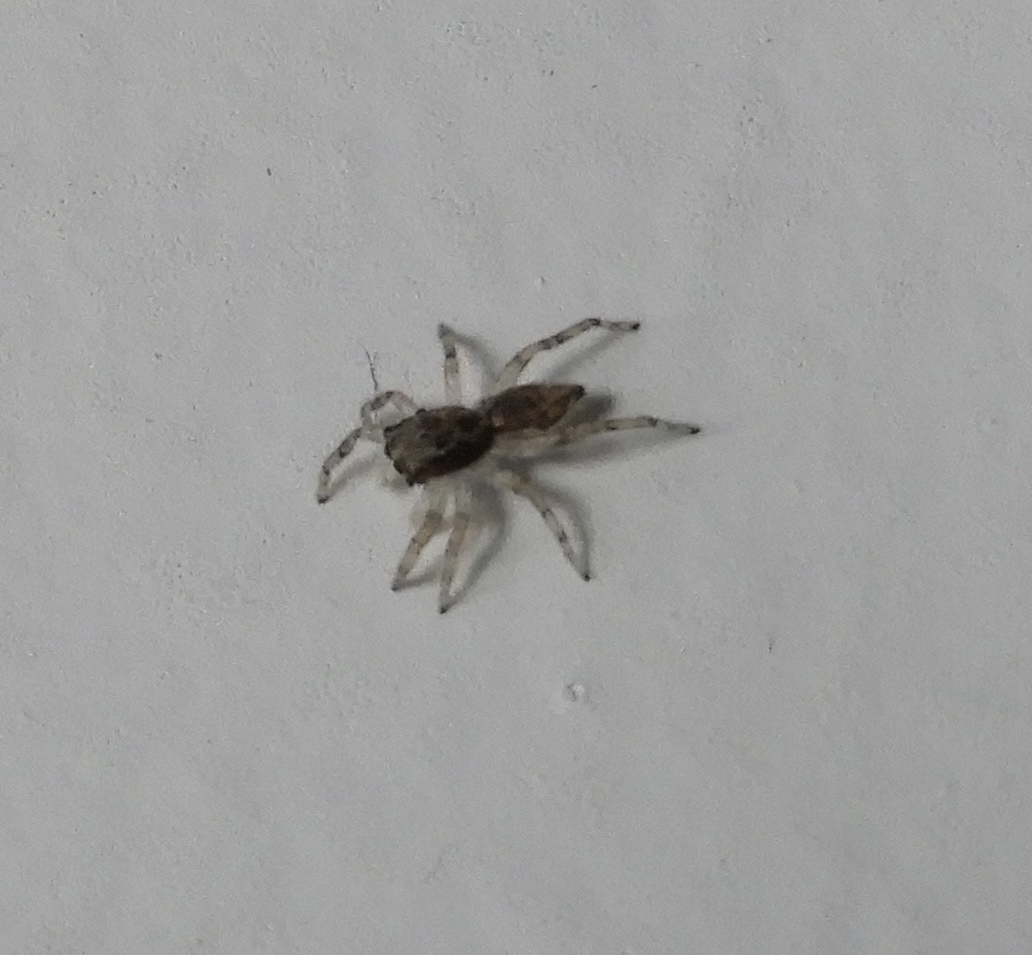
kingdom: Animalia
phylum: Arthropoda
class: Arachnida
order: Araneae
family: Salticidae
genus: Menemerus
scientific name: Menemerus
